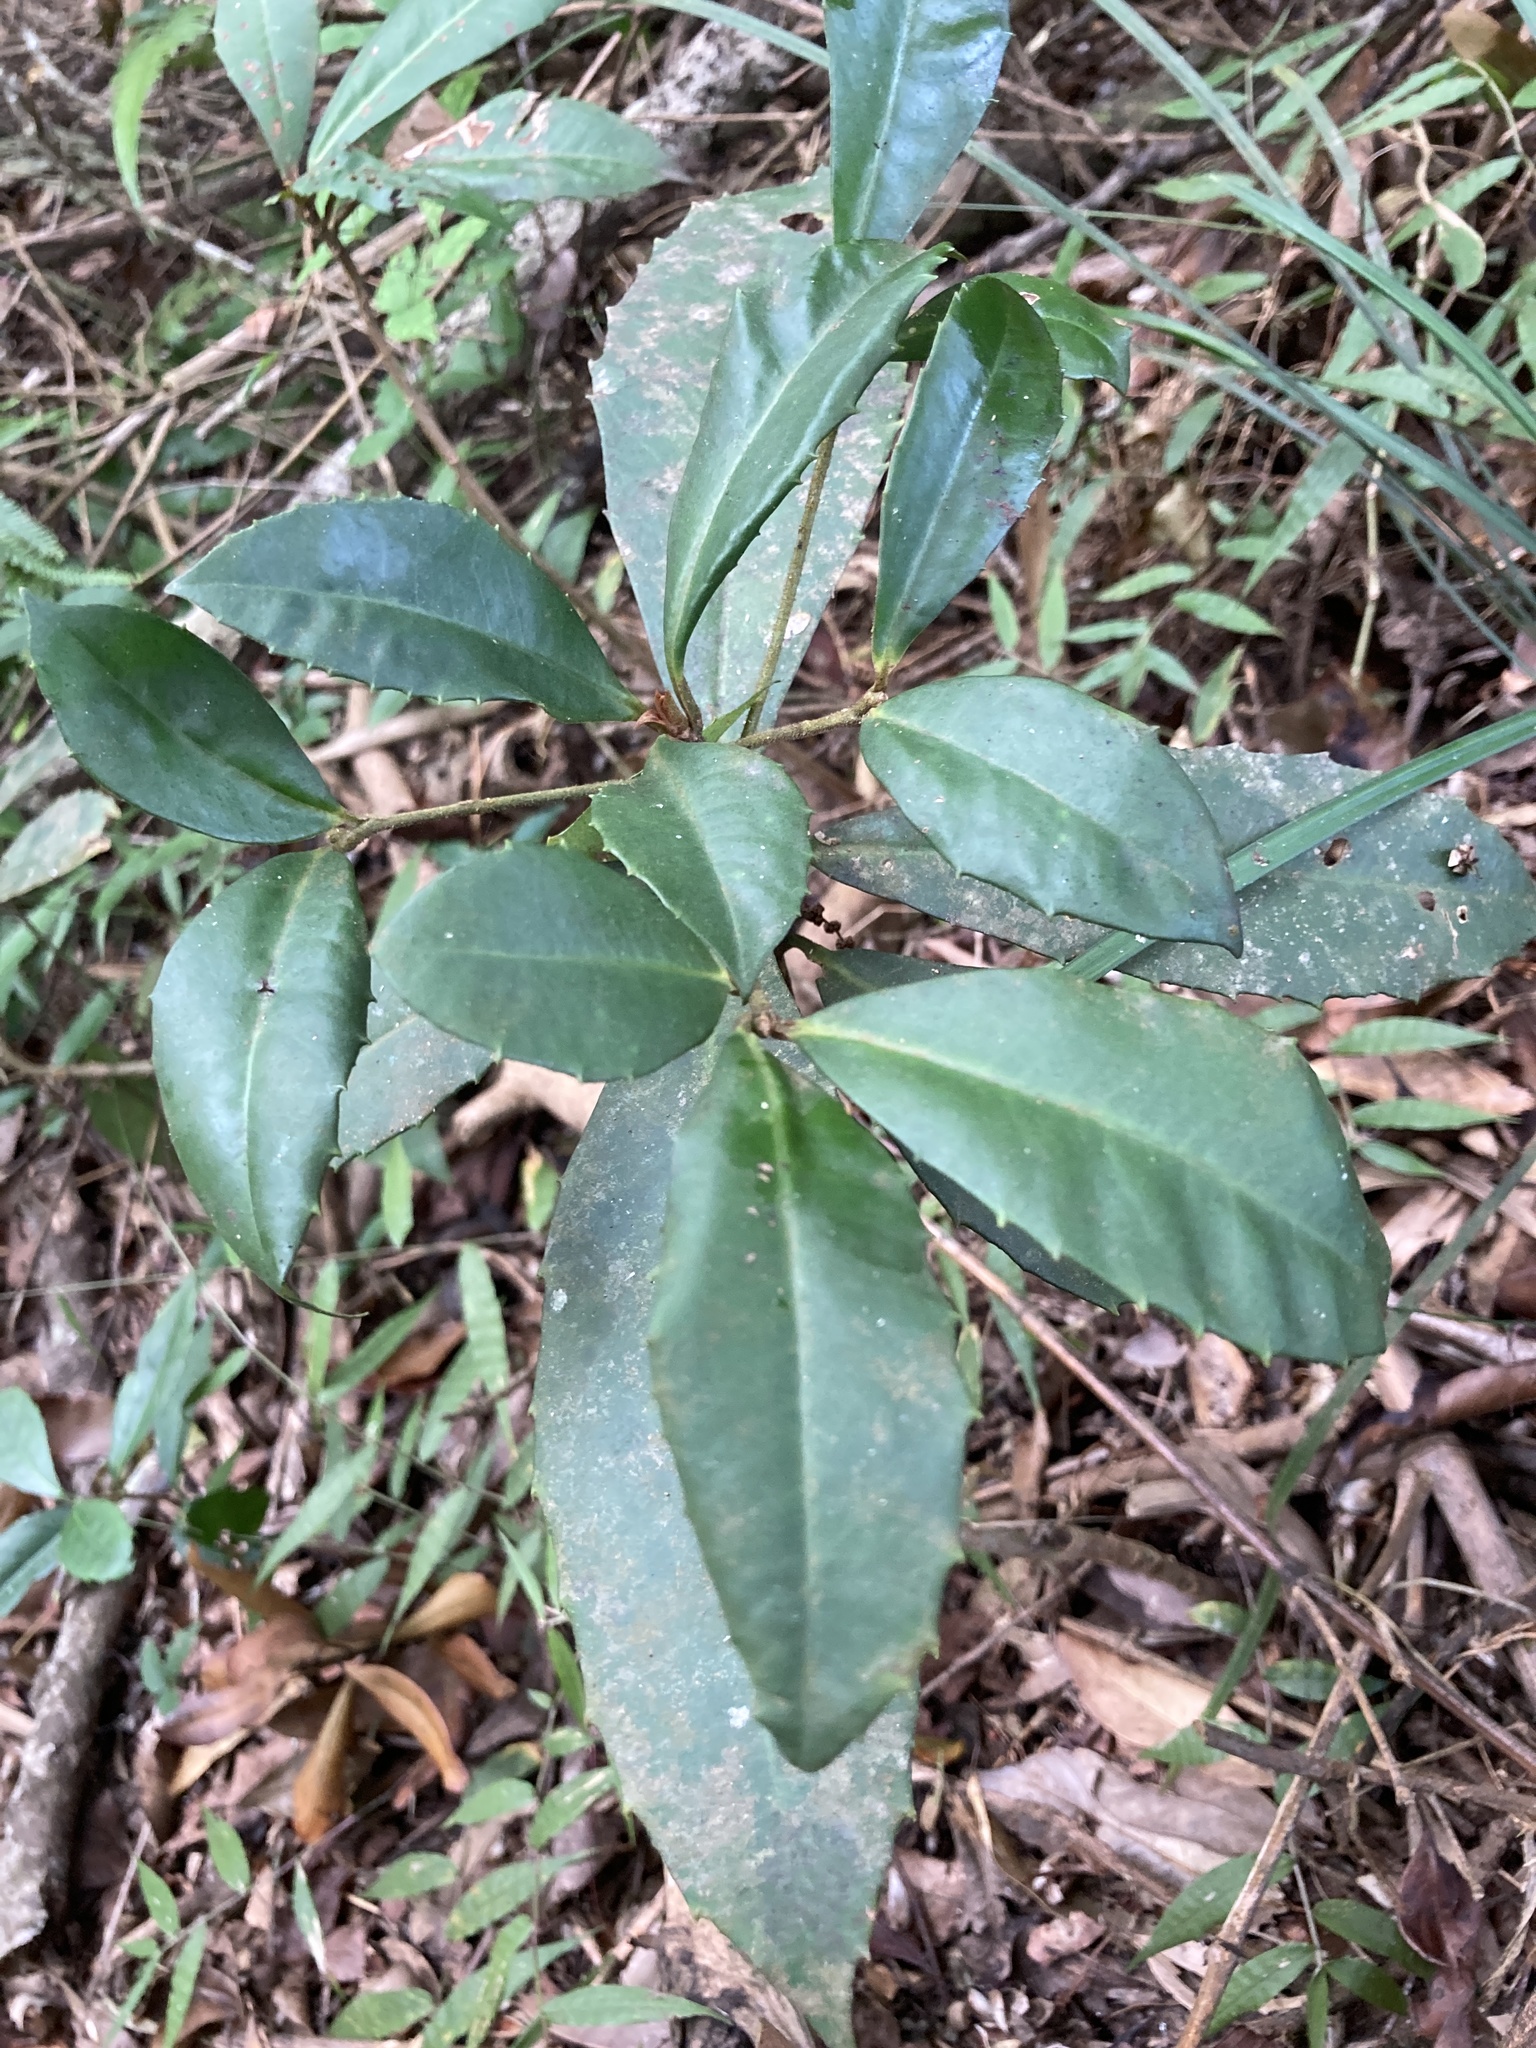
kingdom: Plantae
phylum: Tracheophyta
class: Magnoliopsida
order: Ericales
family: Primulaceae
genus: Ardisia
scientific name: Ardisia cornudentata
